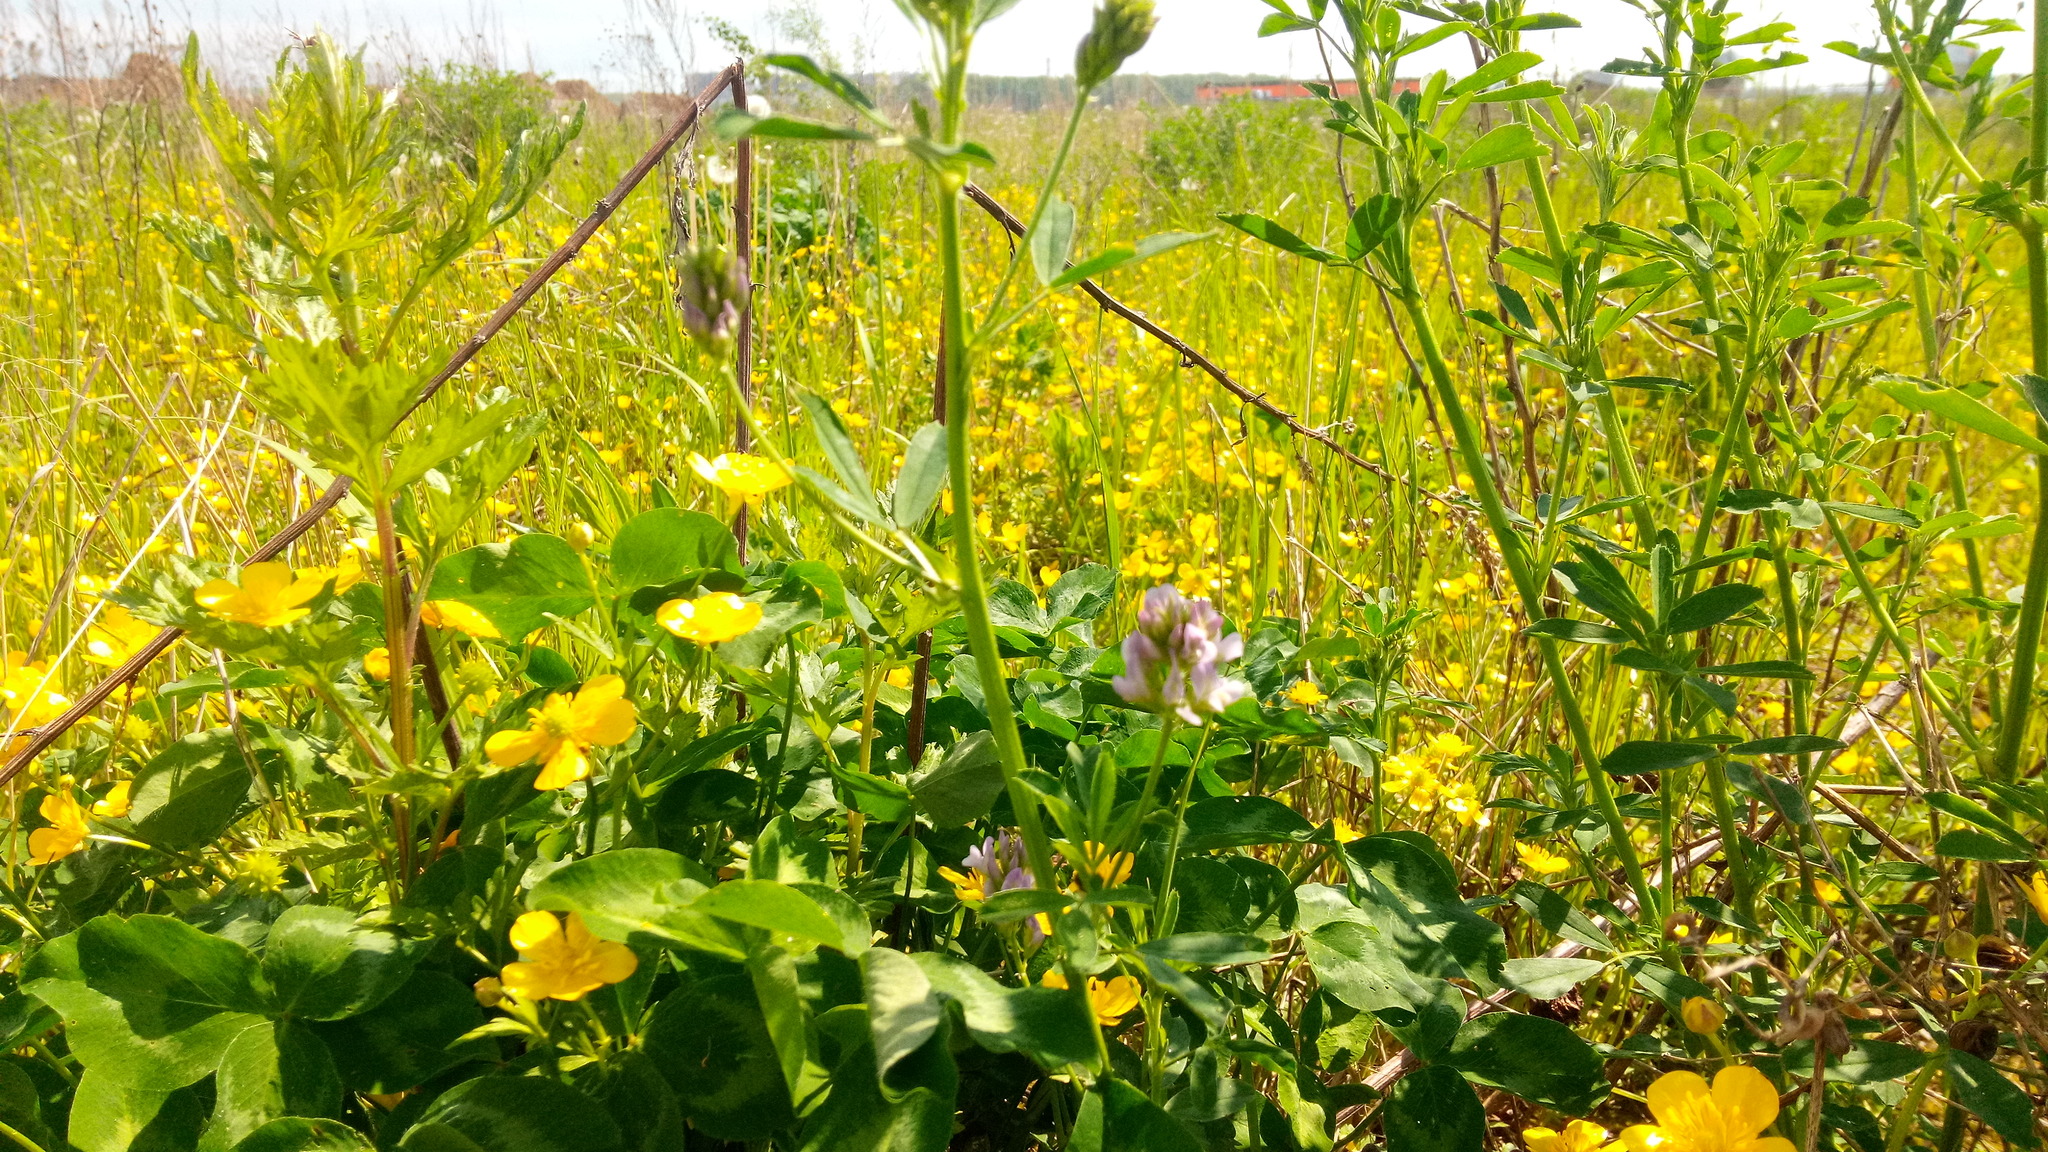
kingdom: Plantae
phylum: Tracheophyta
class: Magnoliopsida
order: Fabales
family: Fabaceae
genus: Medicago
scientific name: Medicago varia
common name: Sand lucerne
